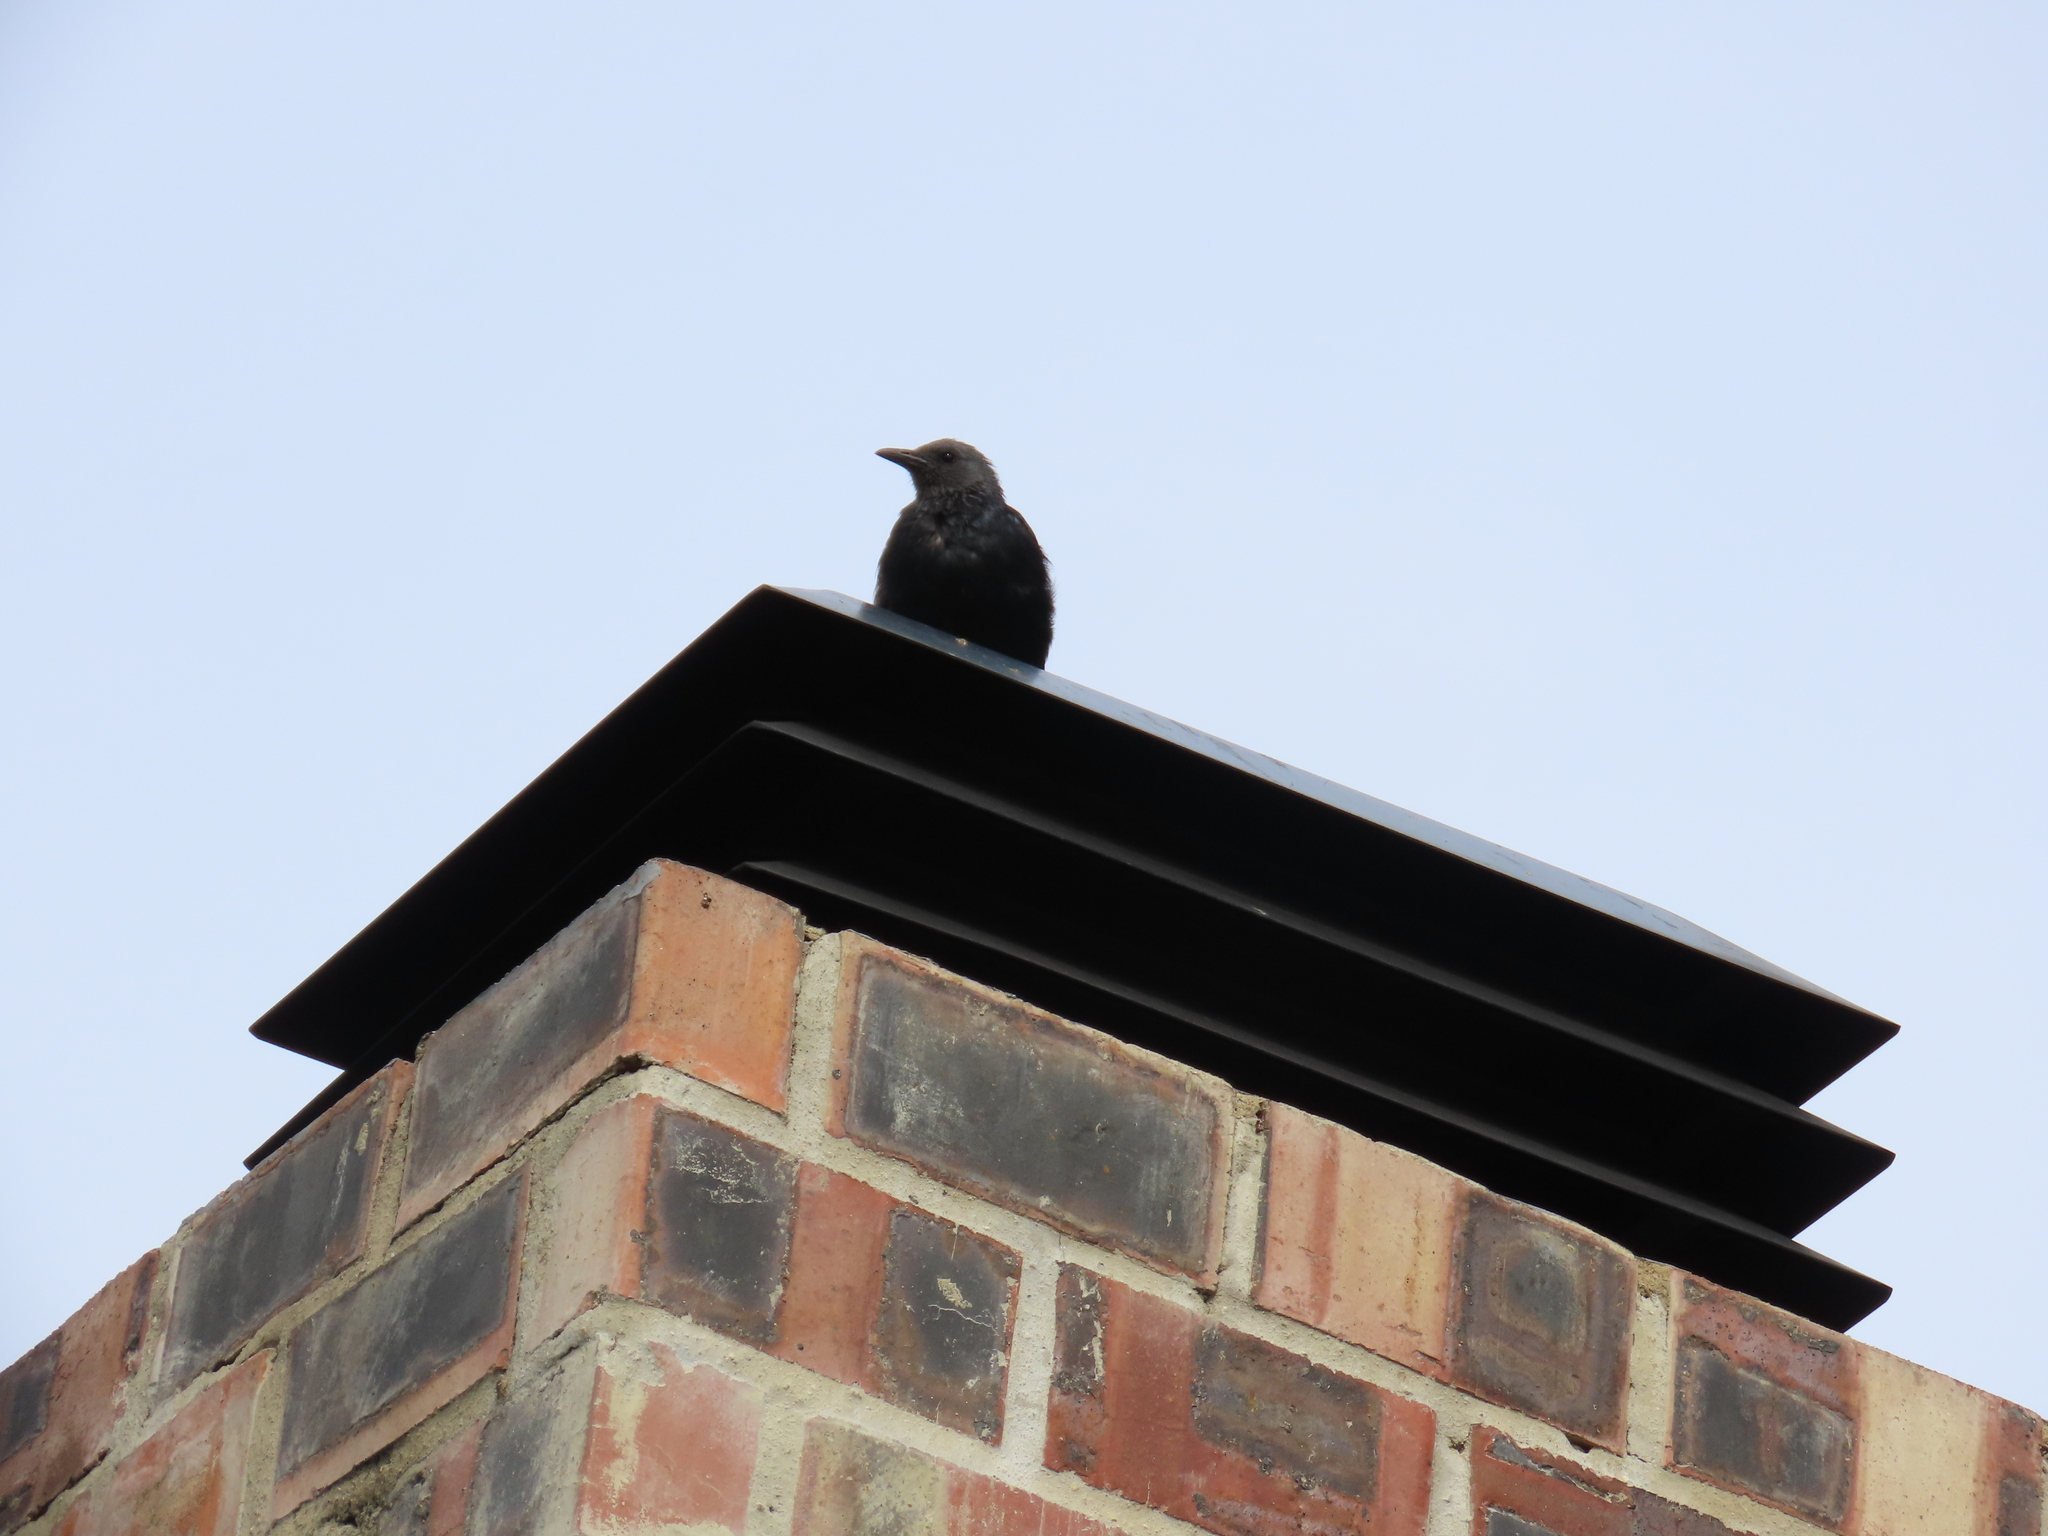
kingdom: Animalia
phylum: Chordata
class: Aves
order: Passeriformes
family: Sturnidae
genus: Onychognathus
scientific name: Onychognathus morio
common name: Red-winged starling
